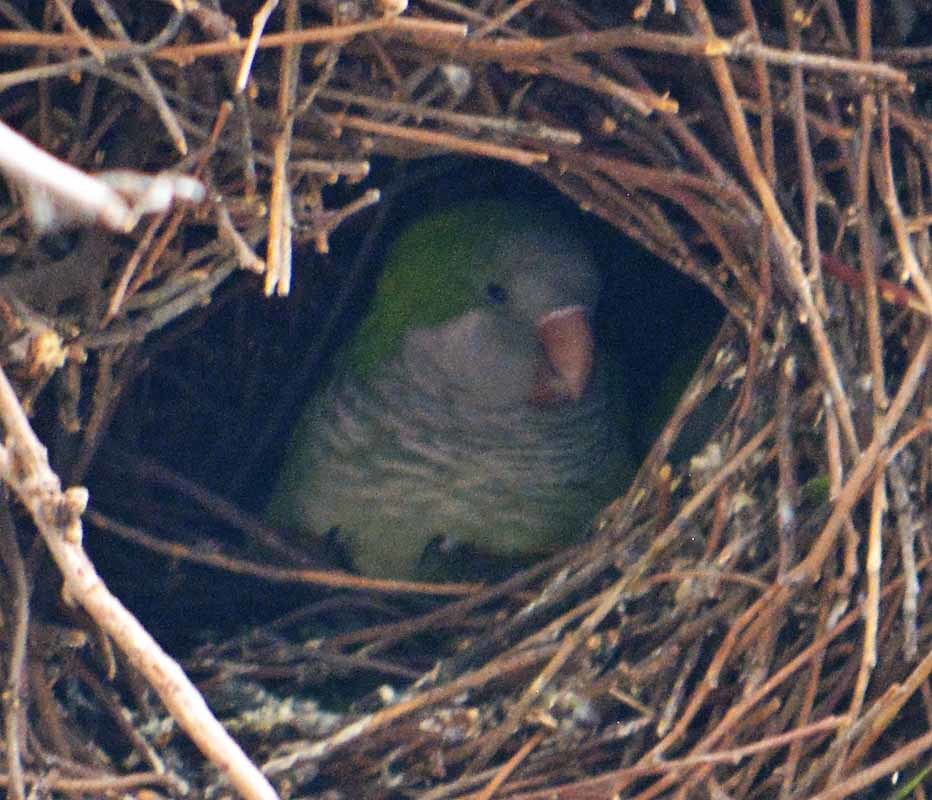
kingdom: Animalia
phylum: Chordata
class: Aves
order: Psittaciformes
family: Psittacidae
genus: Myiopsitta
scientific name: Myiopsitta monachus
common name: Monk parakeet
